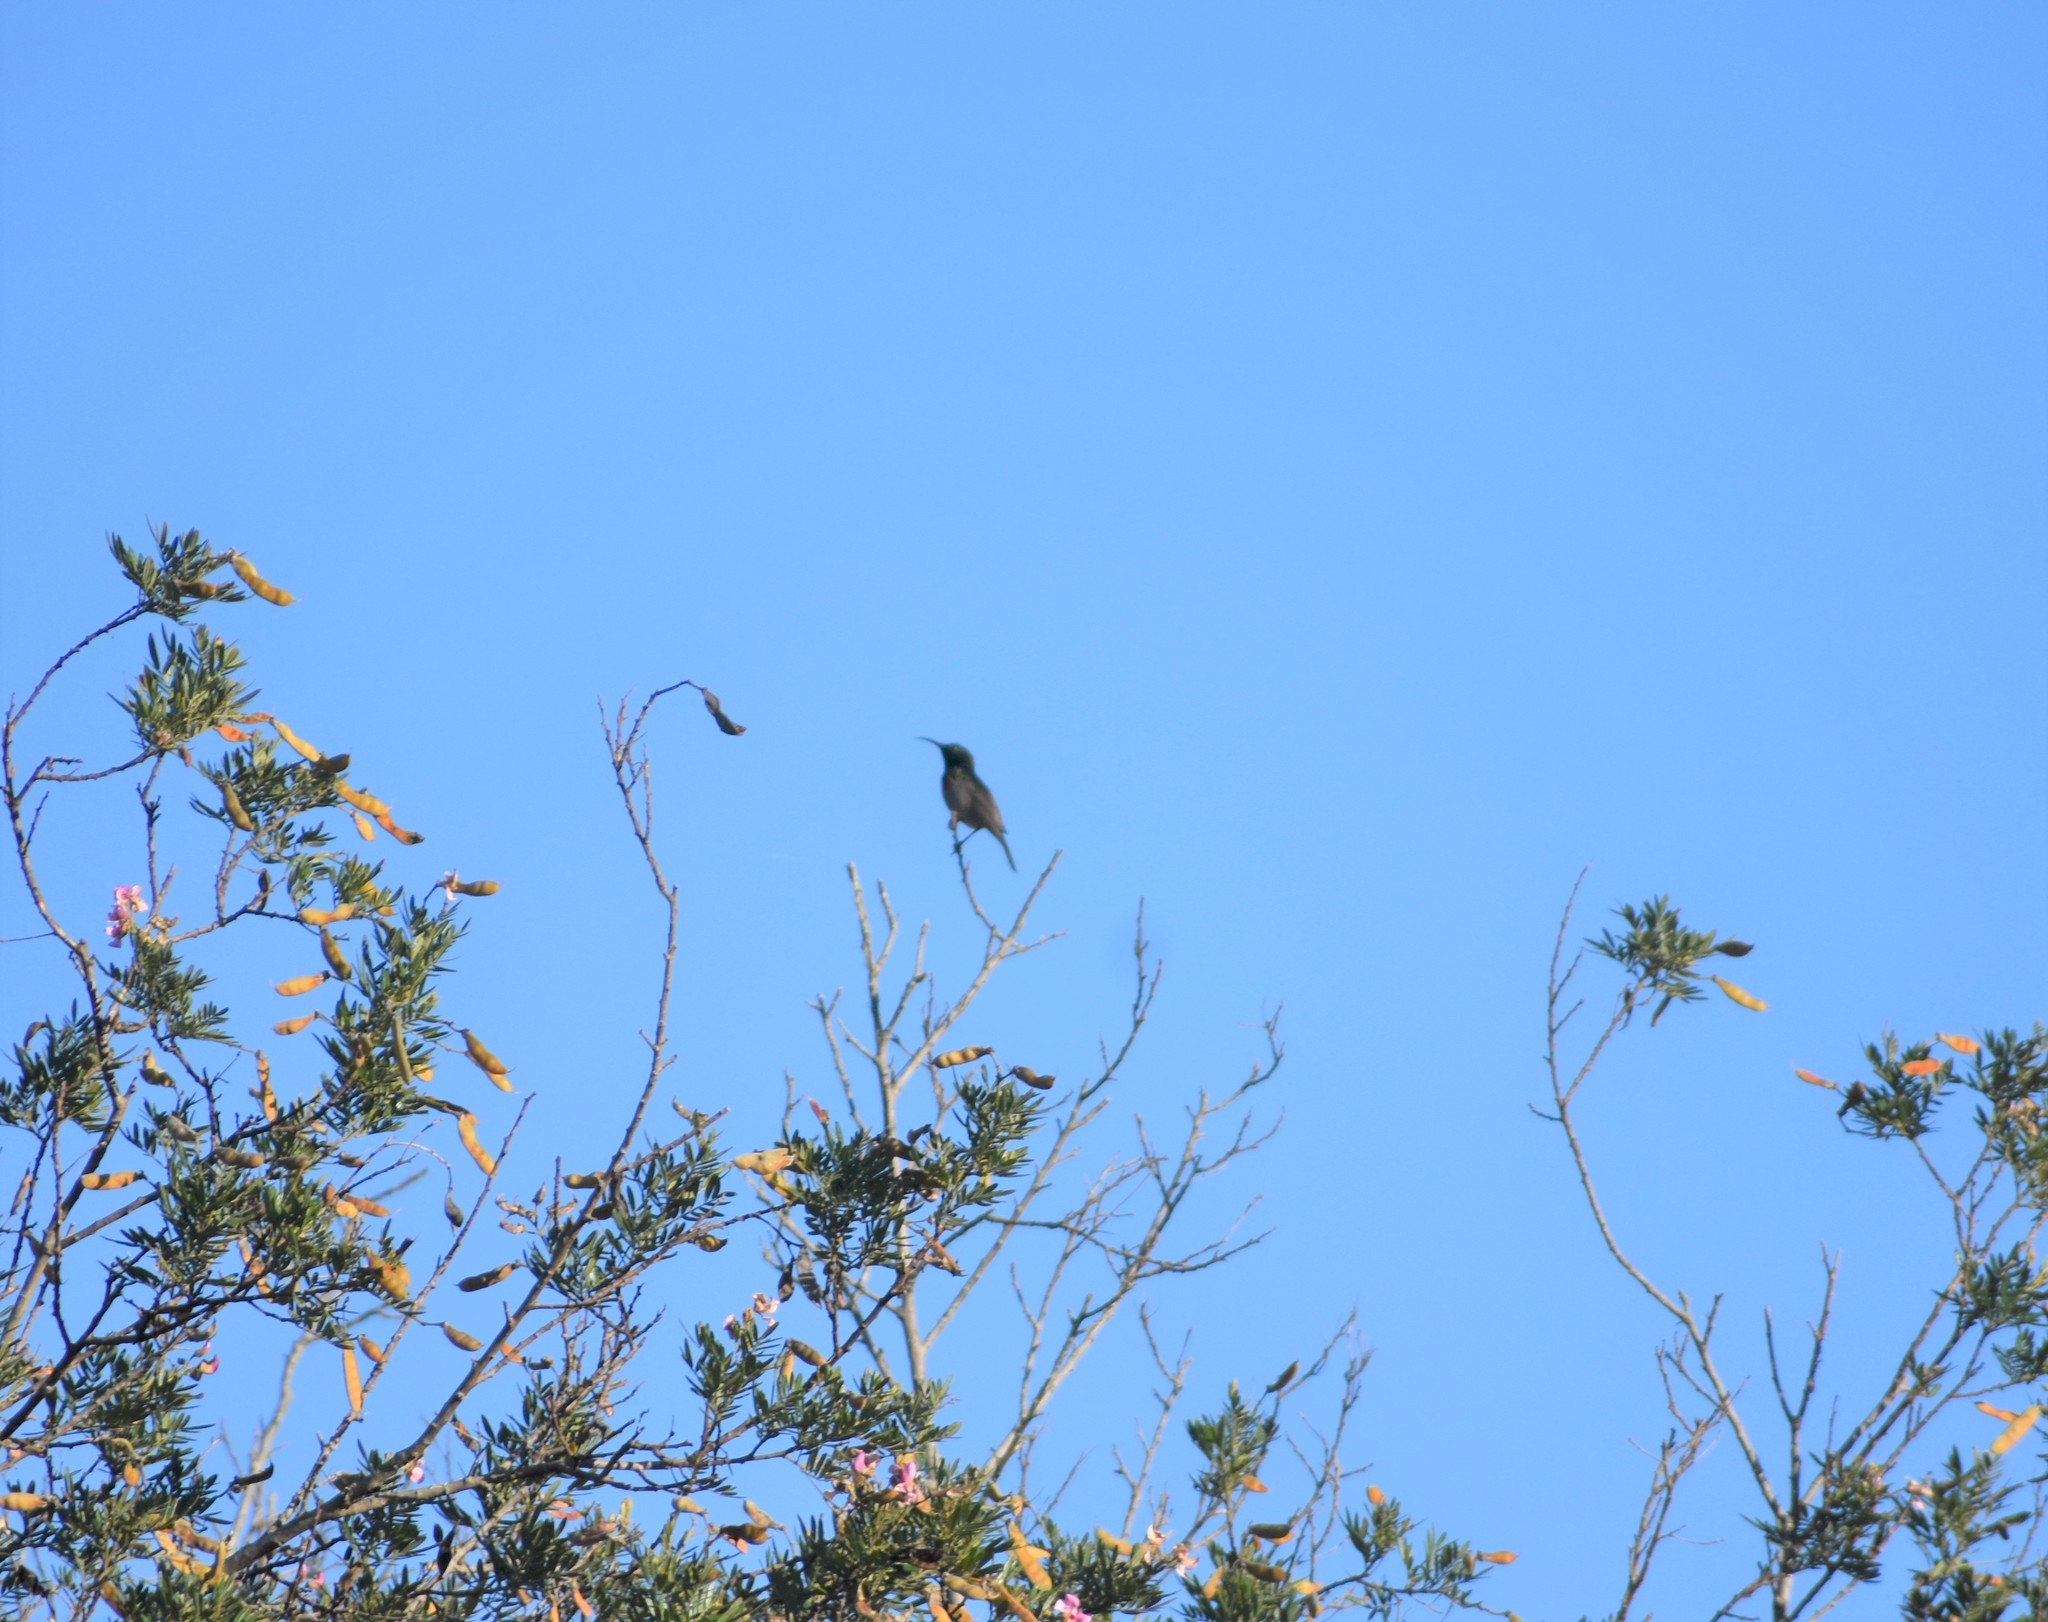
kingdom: Animalia
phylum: Chordata
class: Aves
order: Passeriformes
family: Nectariniidae
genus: Cinnyris
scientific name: Cinnyris afer
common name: Greater double-collared sunbird
